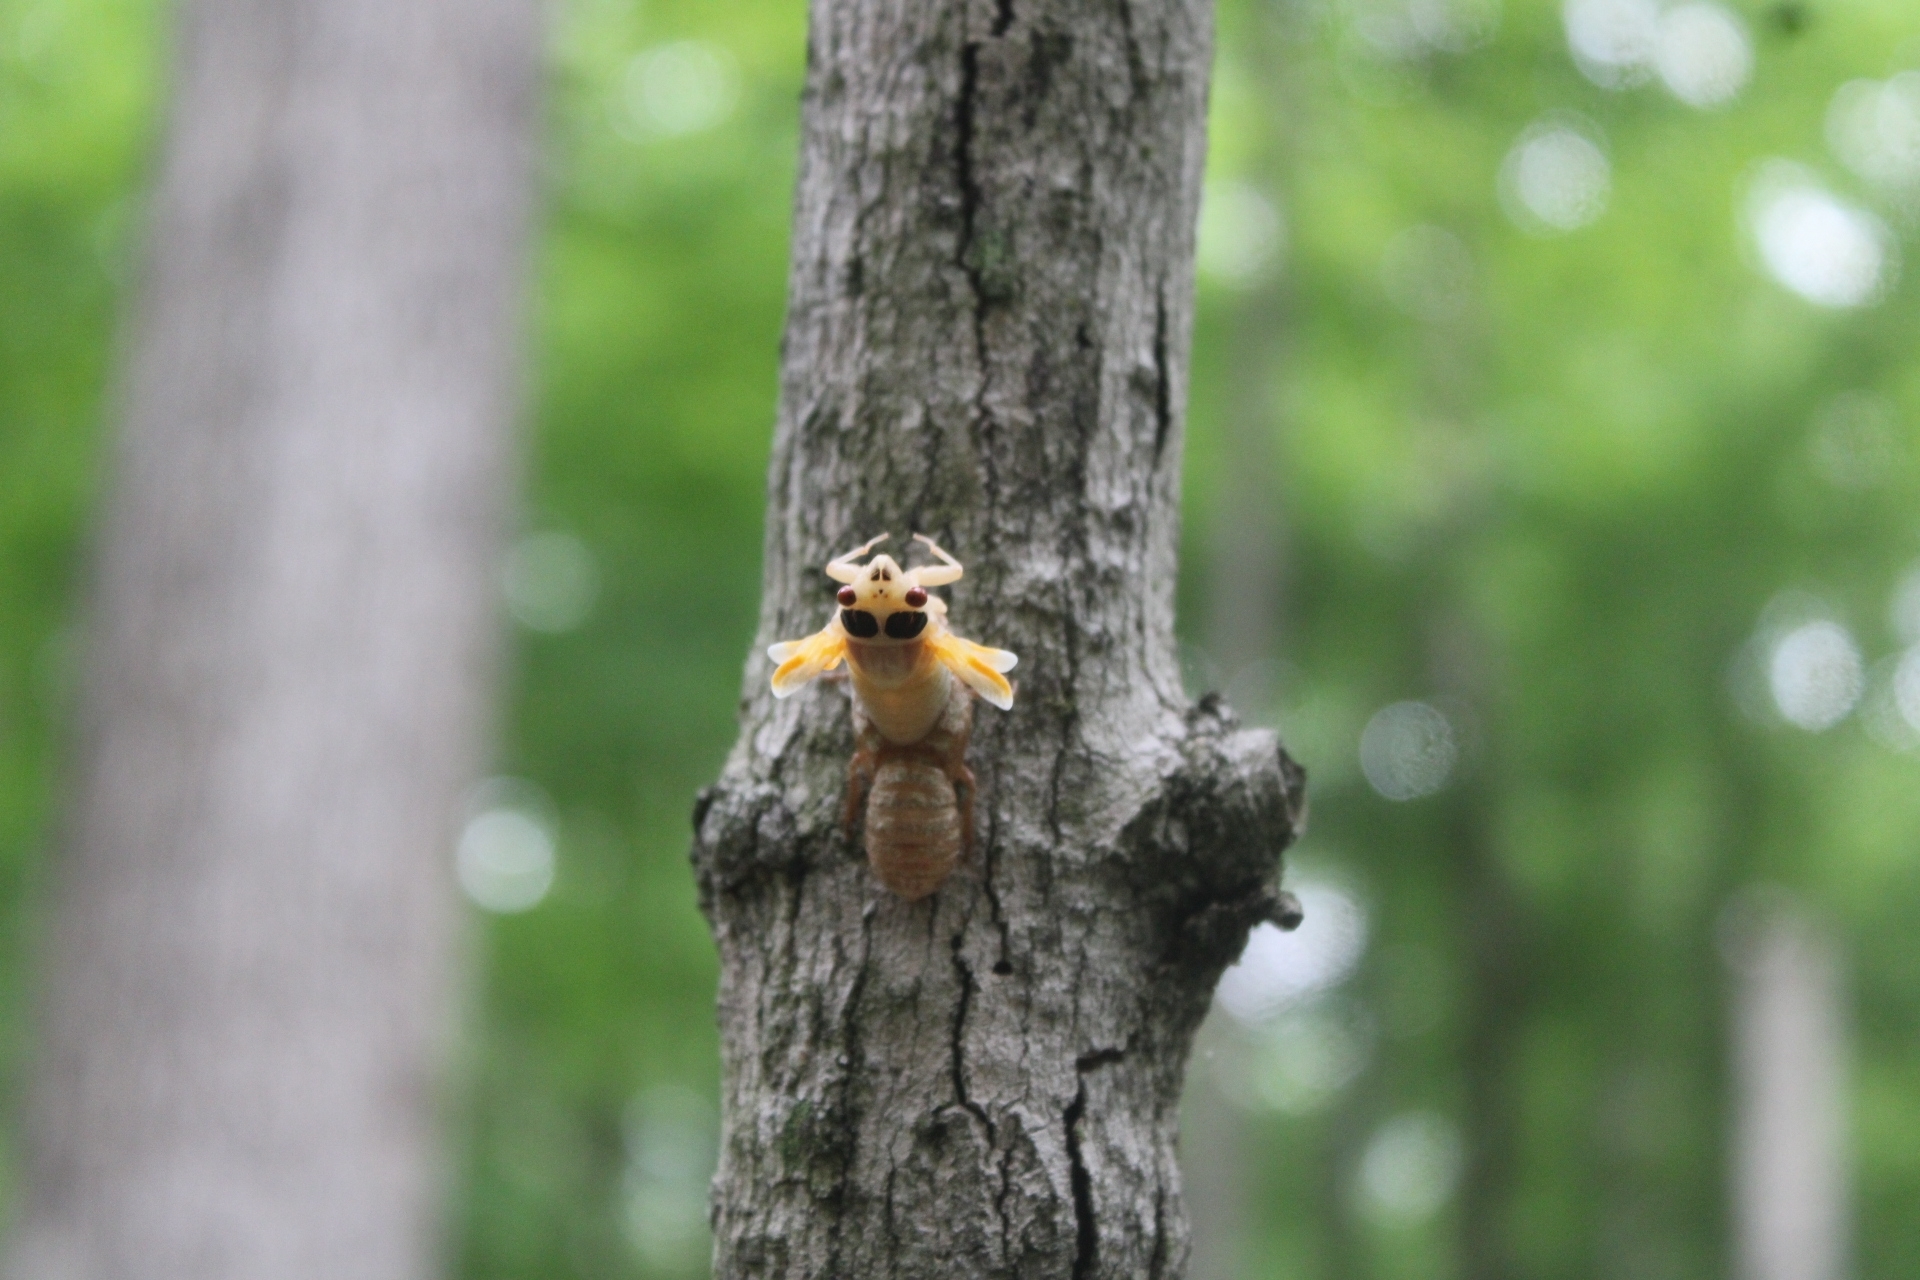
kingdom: Animalia
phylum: Arthropoda
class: Insecta
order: Hemiptera
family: Cicadidae
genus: Magicicada
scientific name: Magicicada
